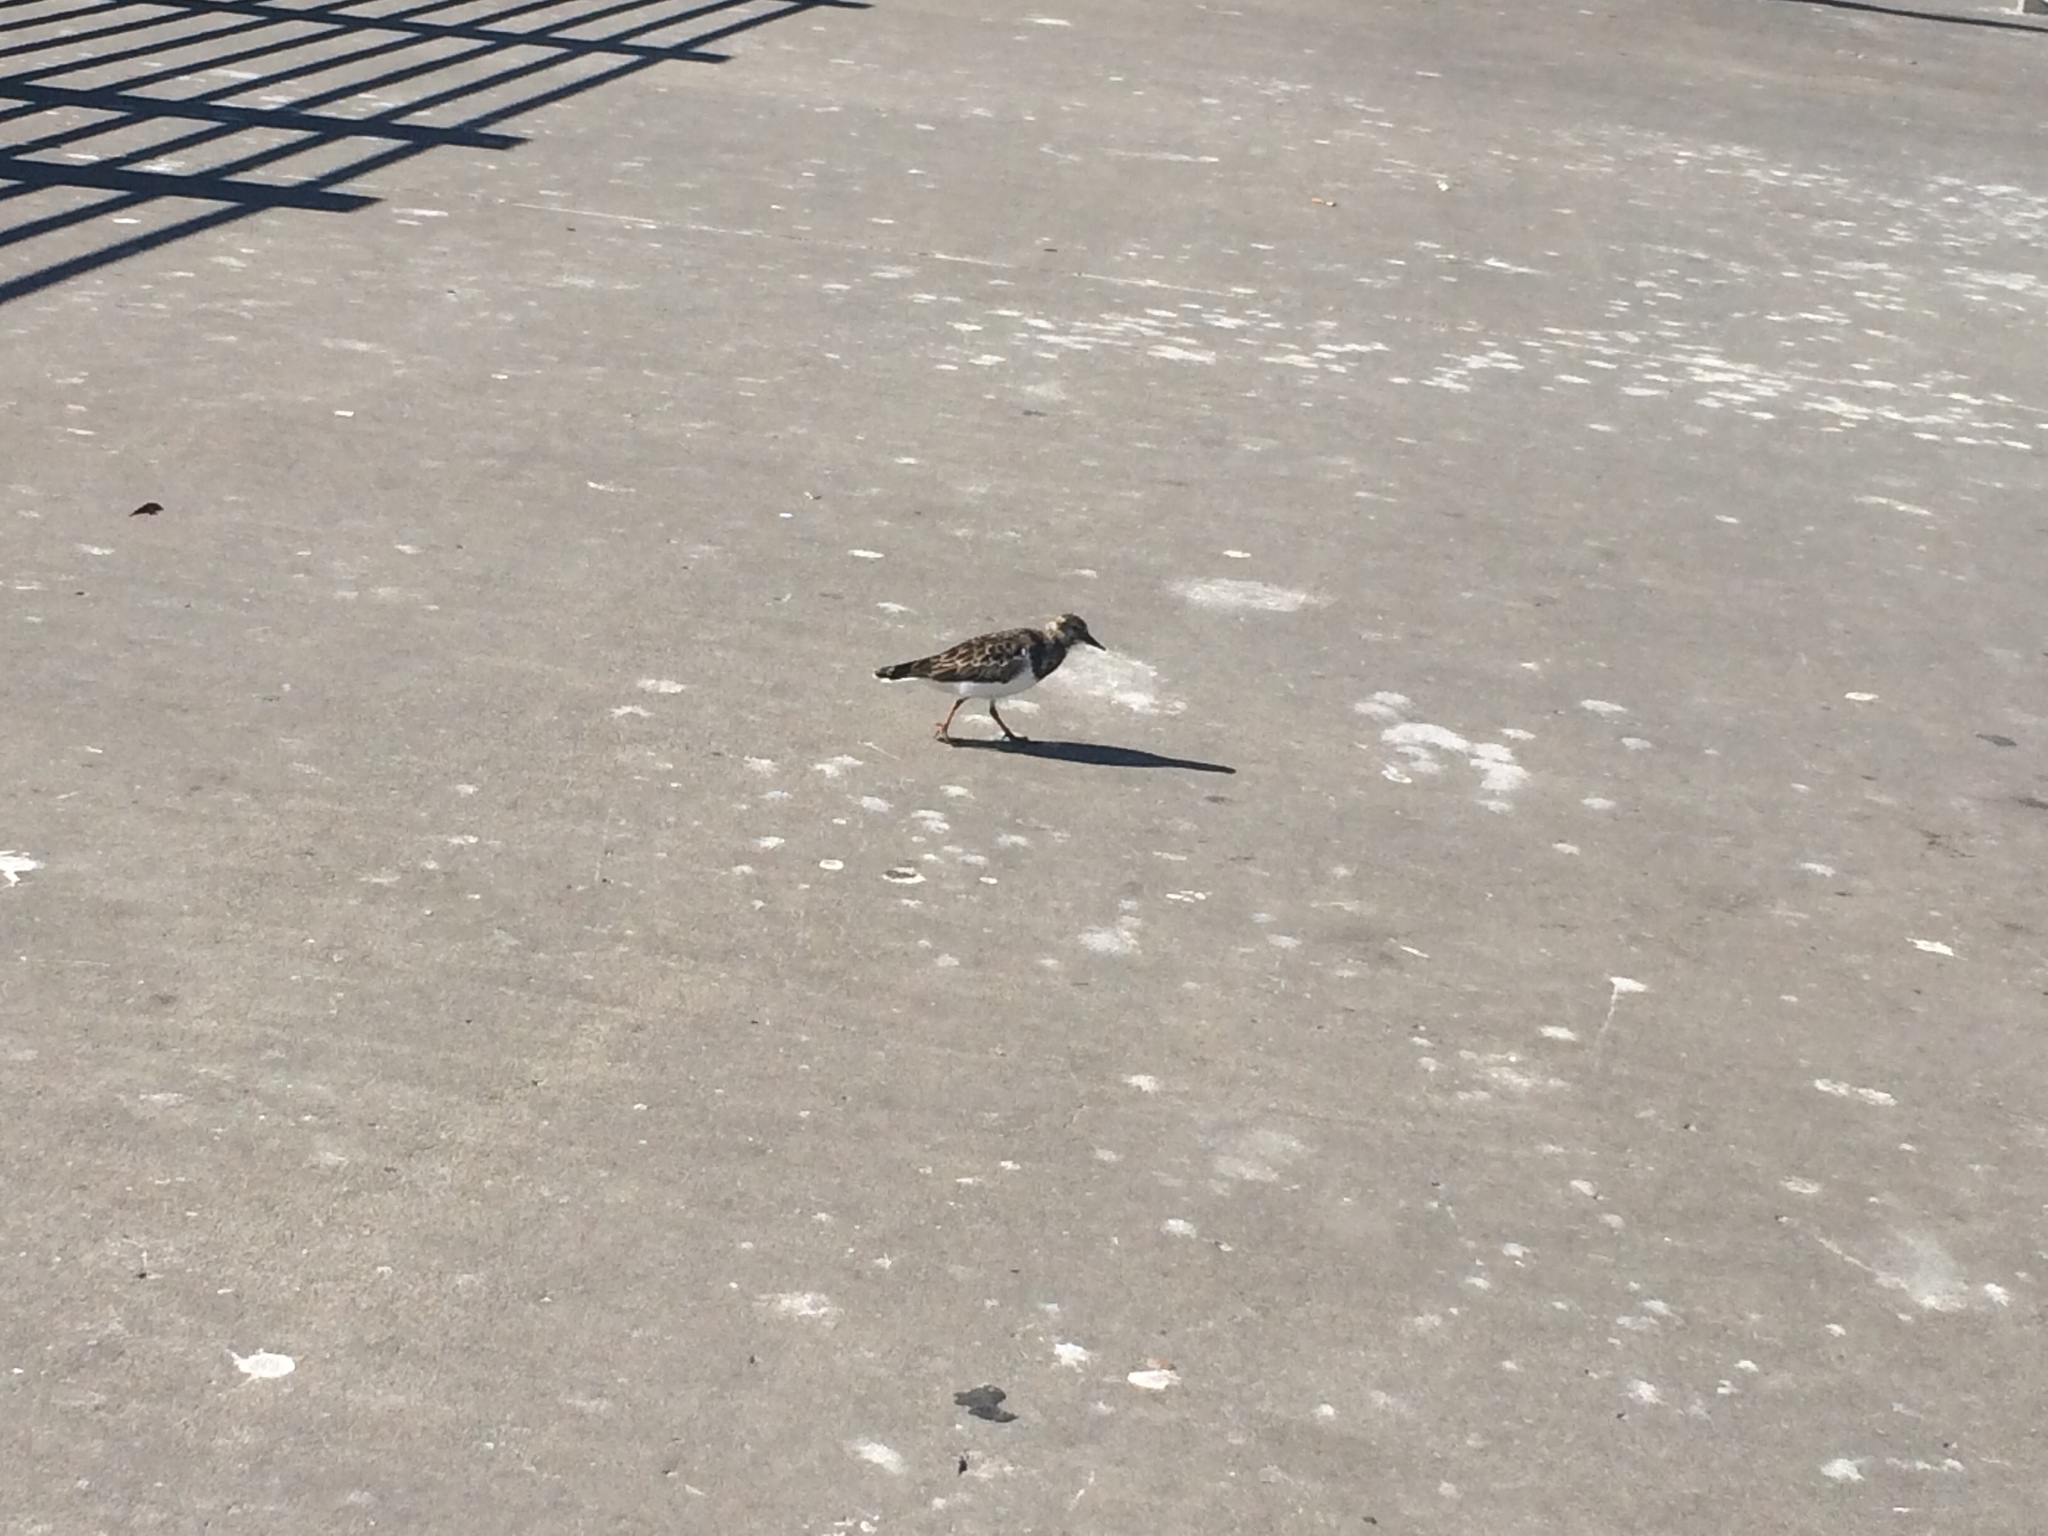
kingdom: Animalia
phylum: Chordata
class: Aves
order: Charadriiformes
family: Scolopacidae
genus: Arenaria
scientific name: Arenaria interpres
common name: Ruddy turnstone
